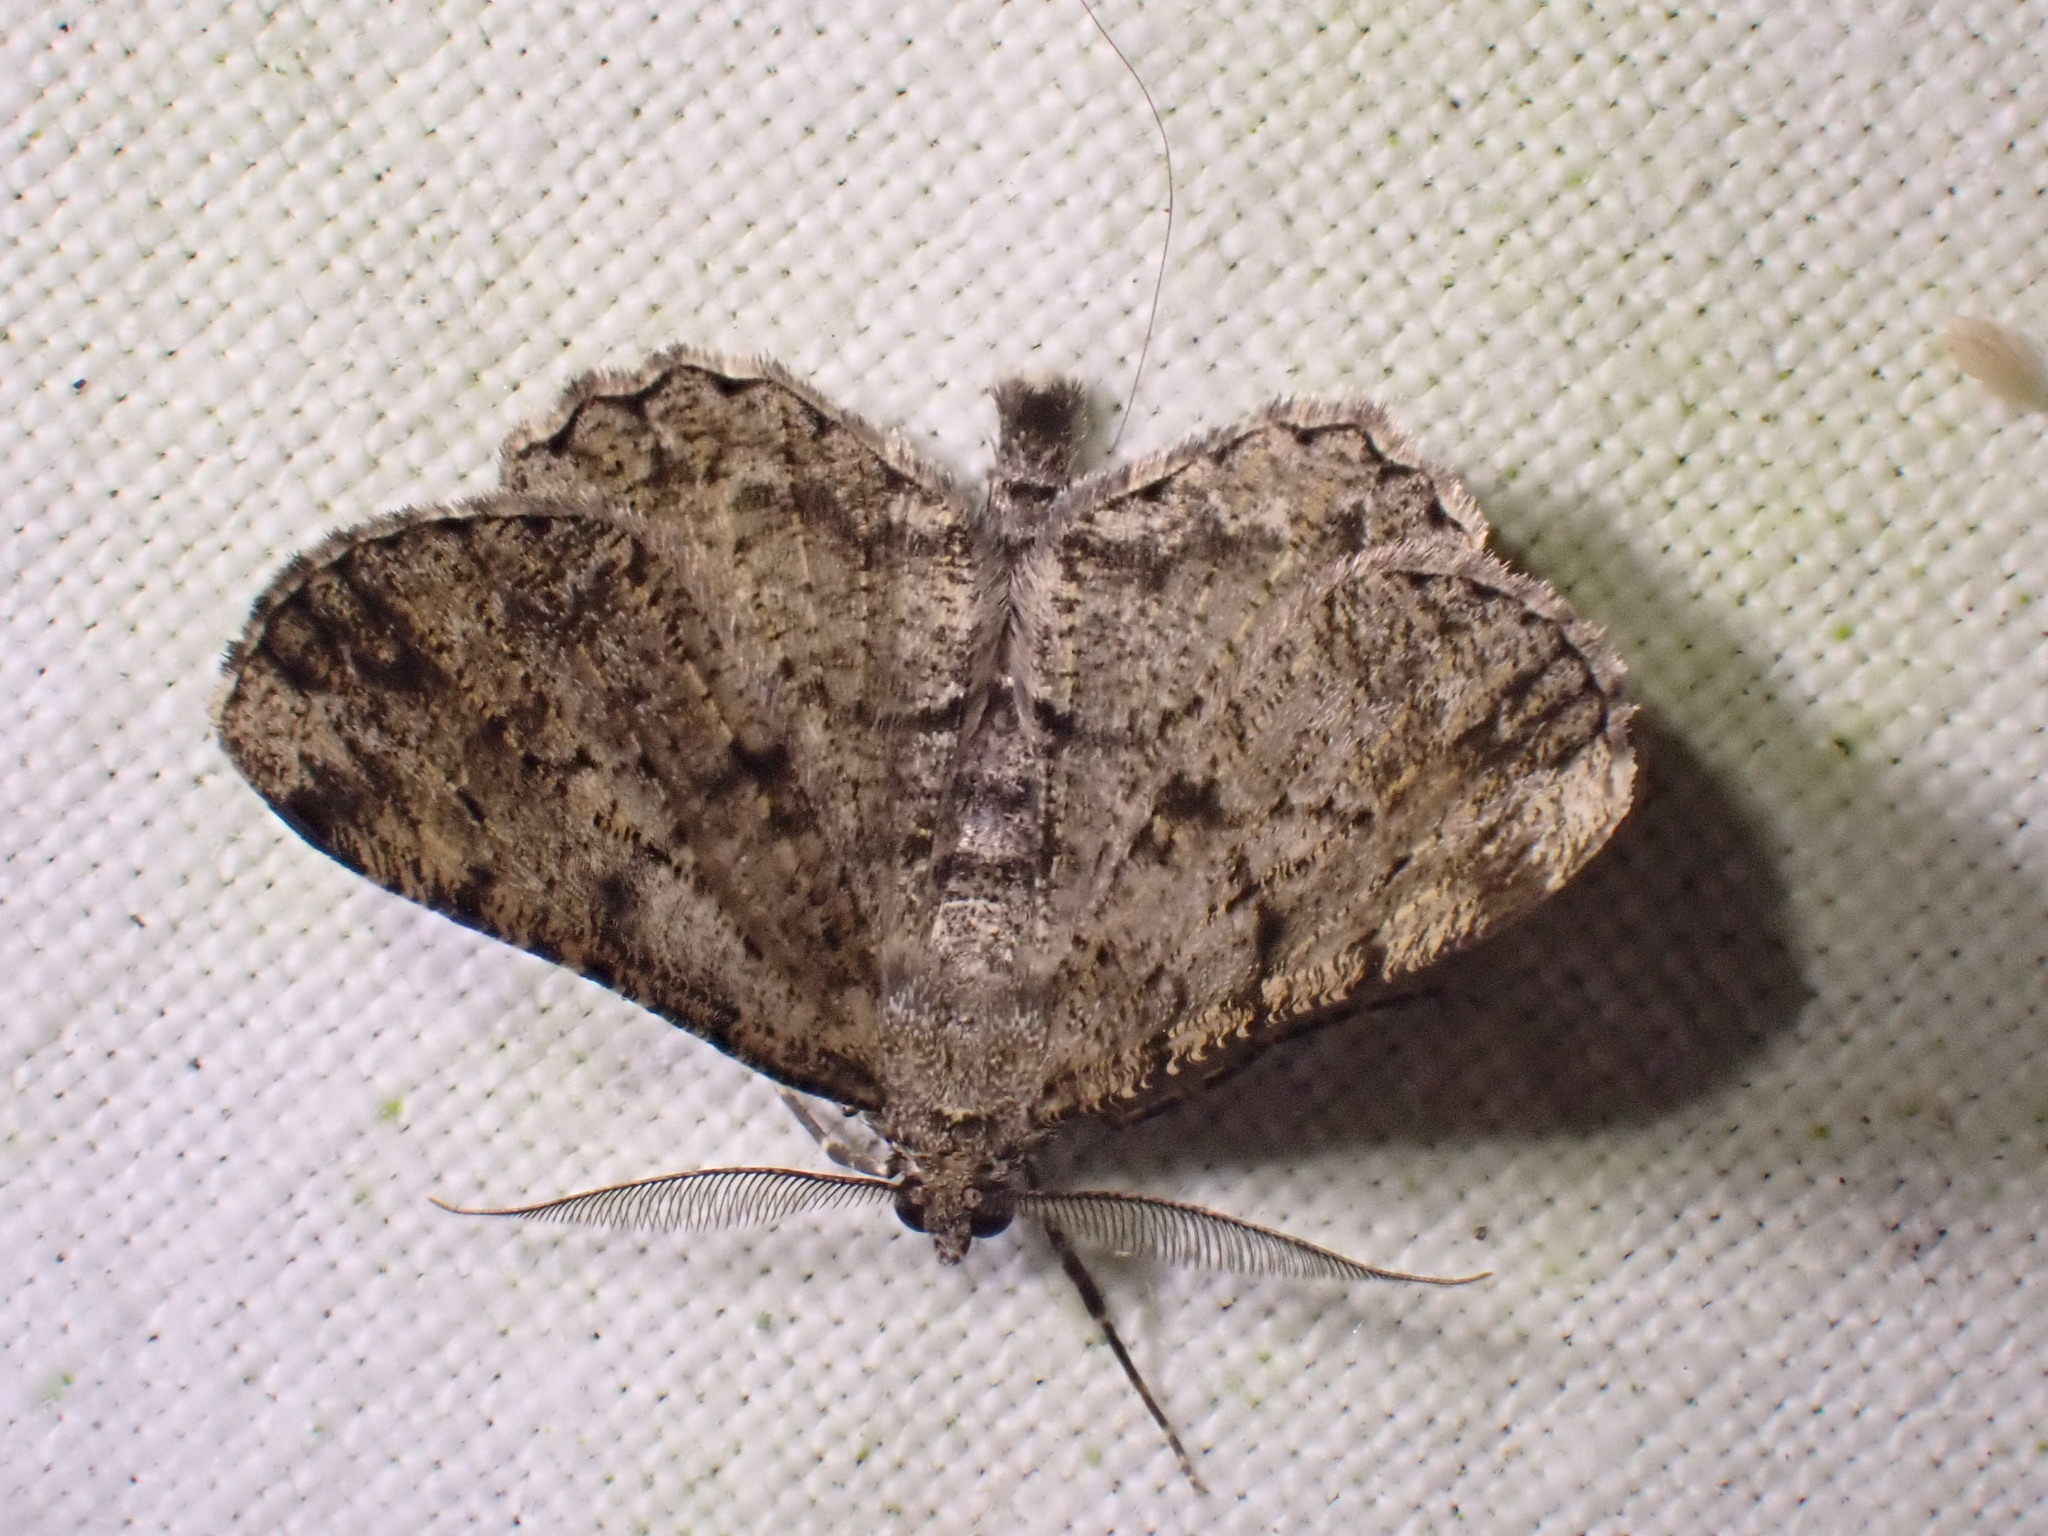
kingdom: Animalia
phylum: Arthropoda
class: Insecta
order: Lepidoptera
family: Geometridae
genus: Peribatodes
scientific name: Peribatodes rhomboidaria
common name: Willow beauty
